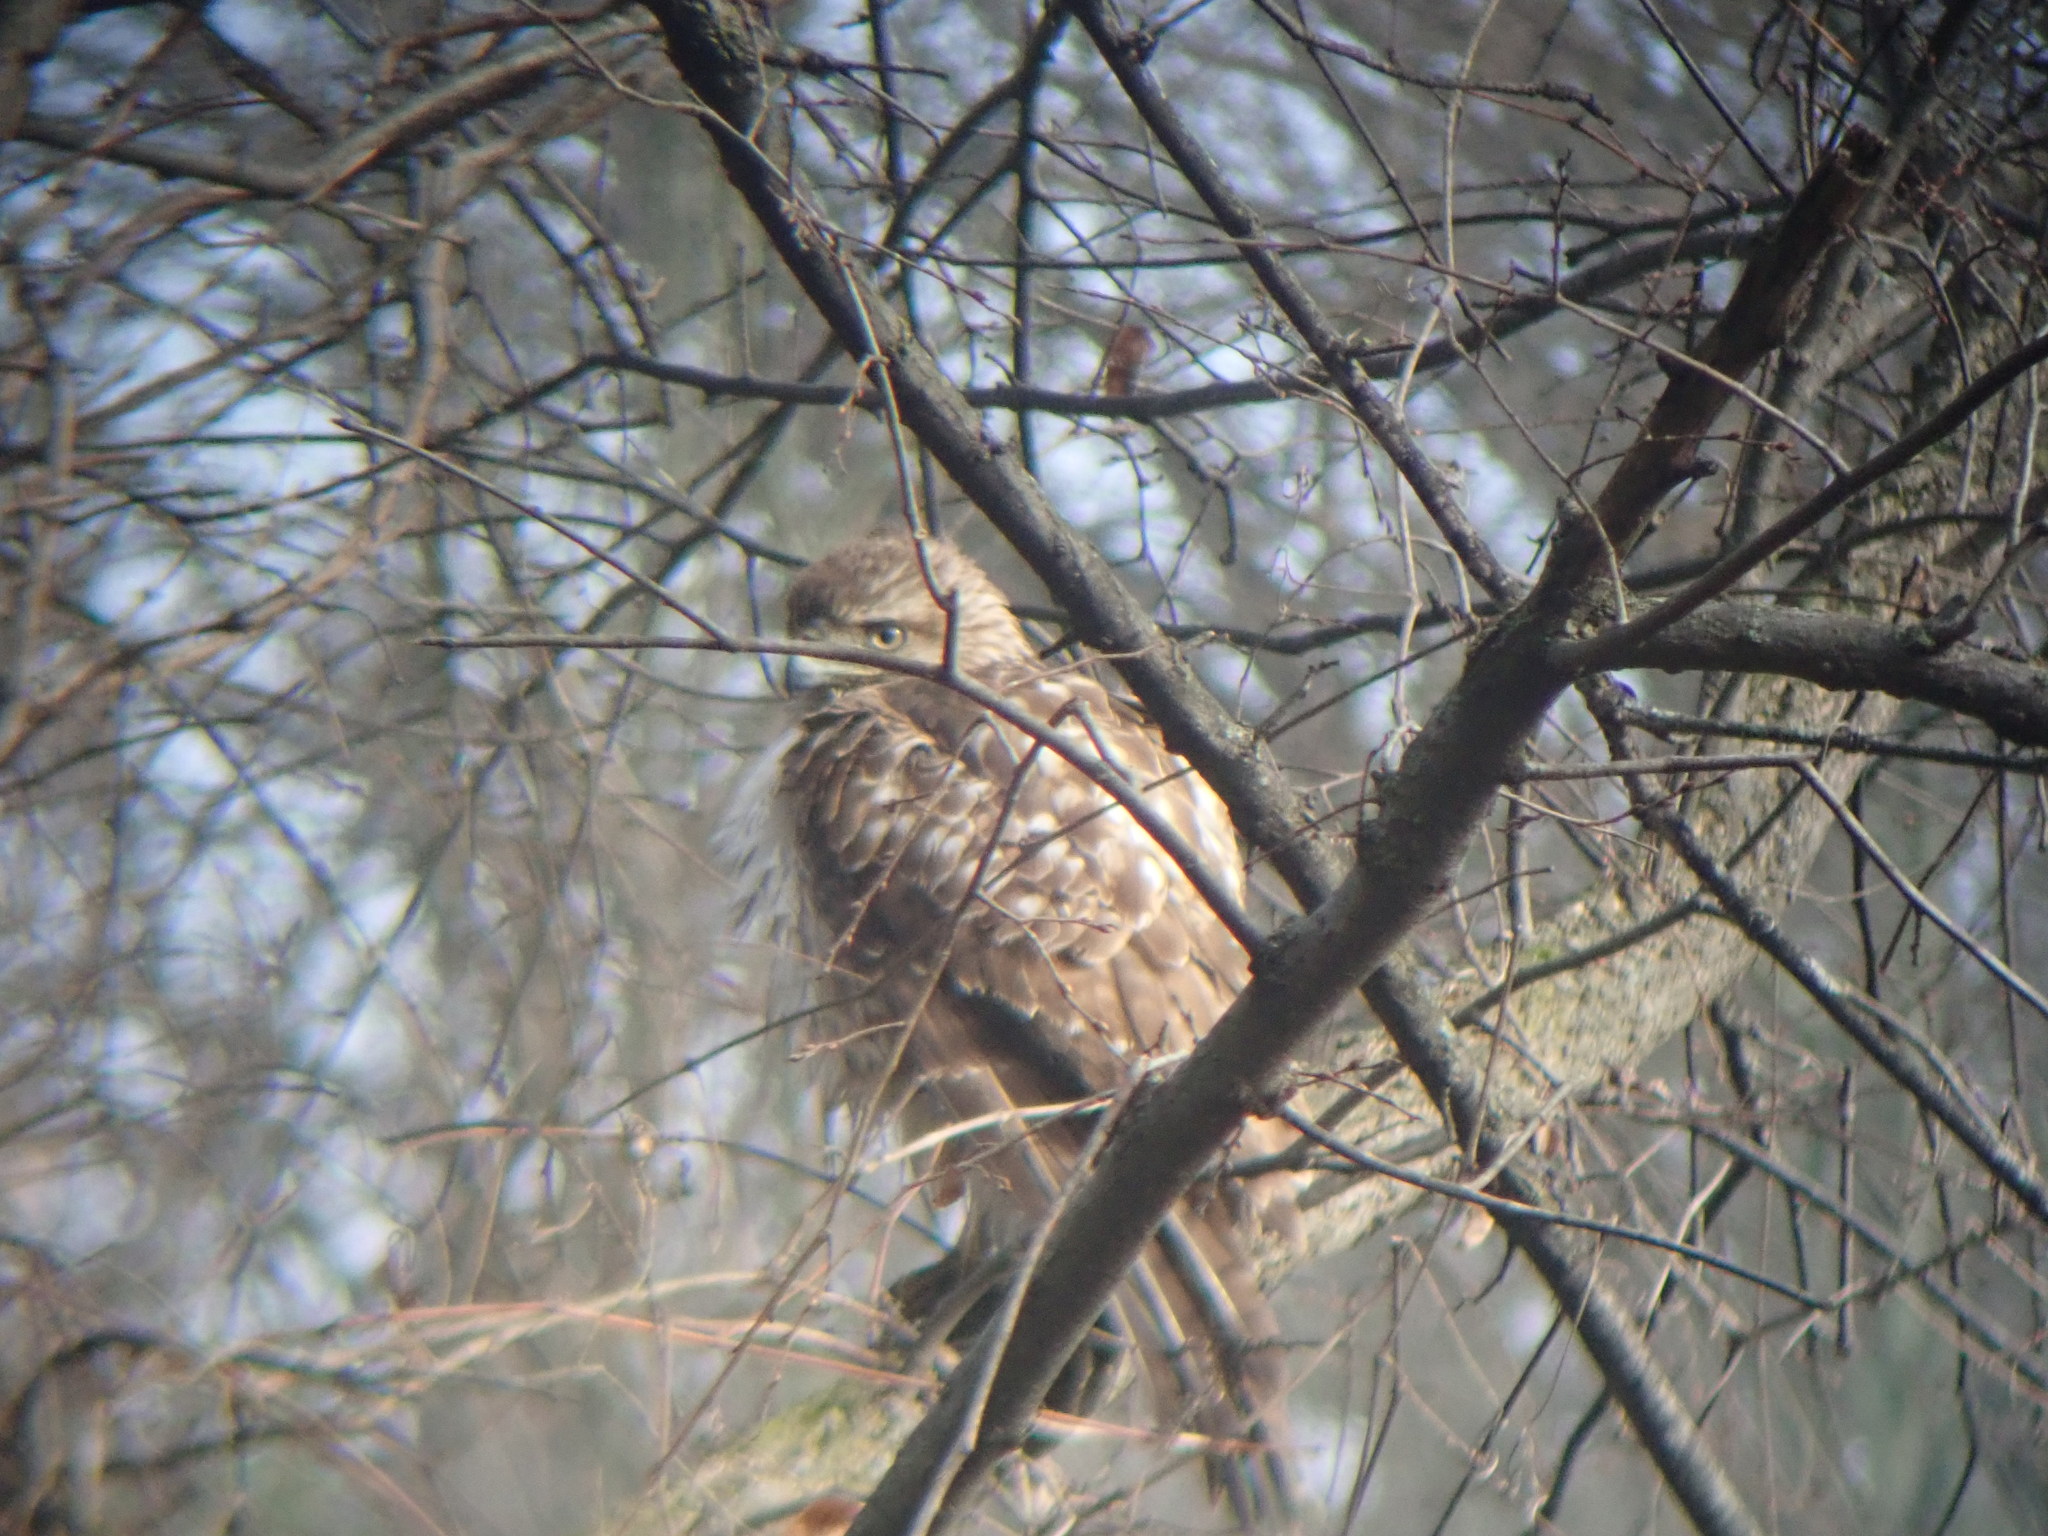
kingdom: Animalia
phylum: Chordata
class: Aves
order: Accipitriformes
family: Accipitridae
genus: Buteo
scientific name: Buteo jamaicensis
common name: Red-tailed hawk
